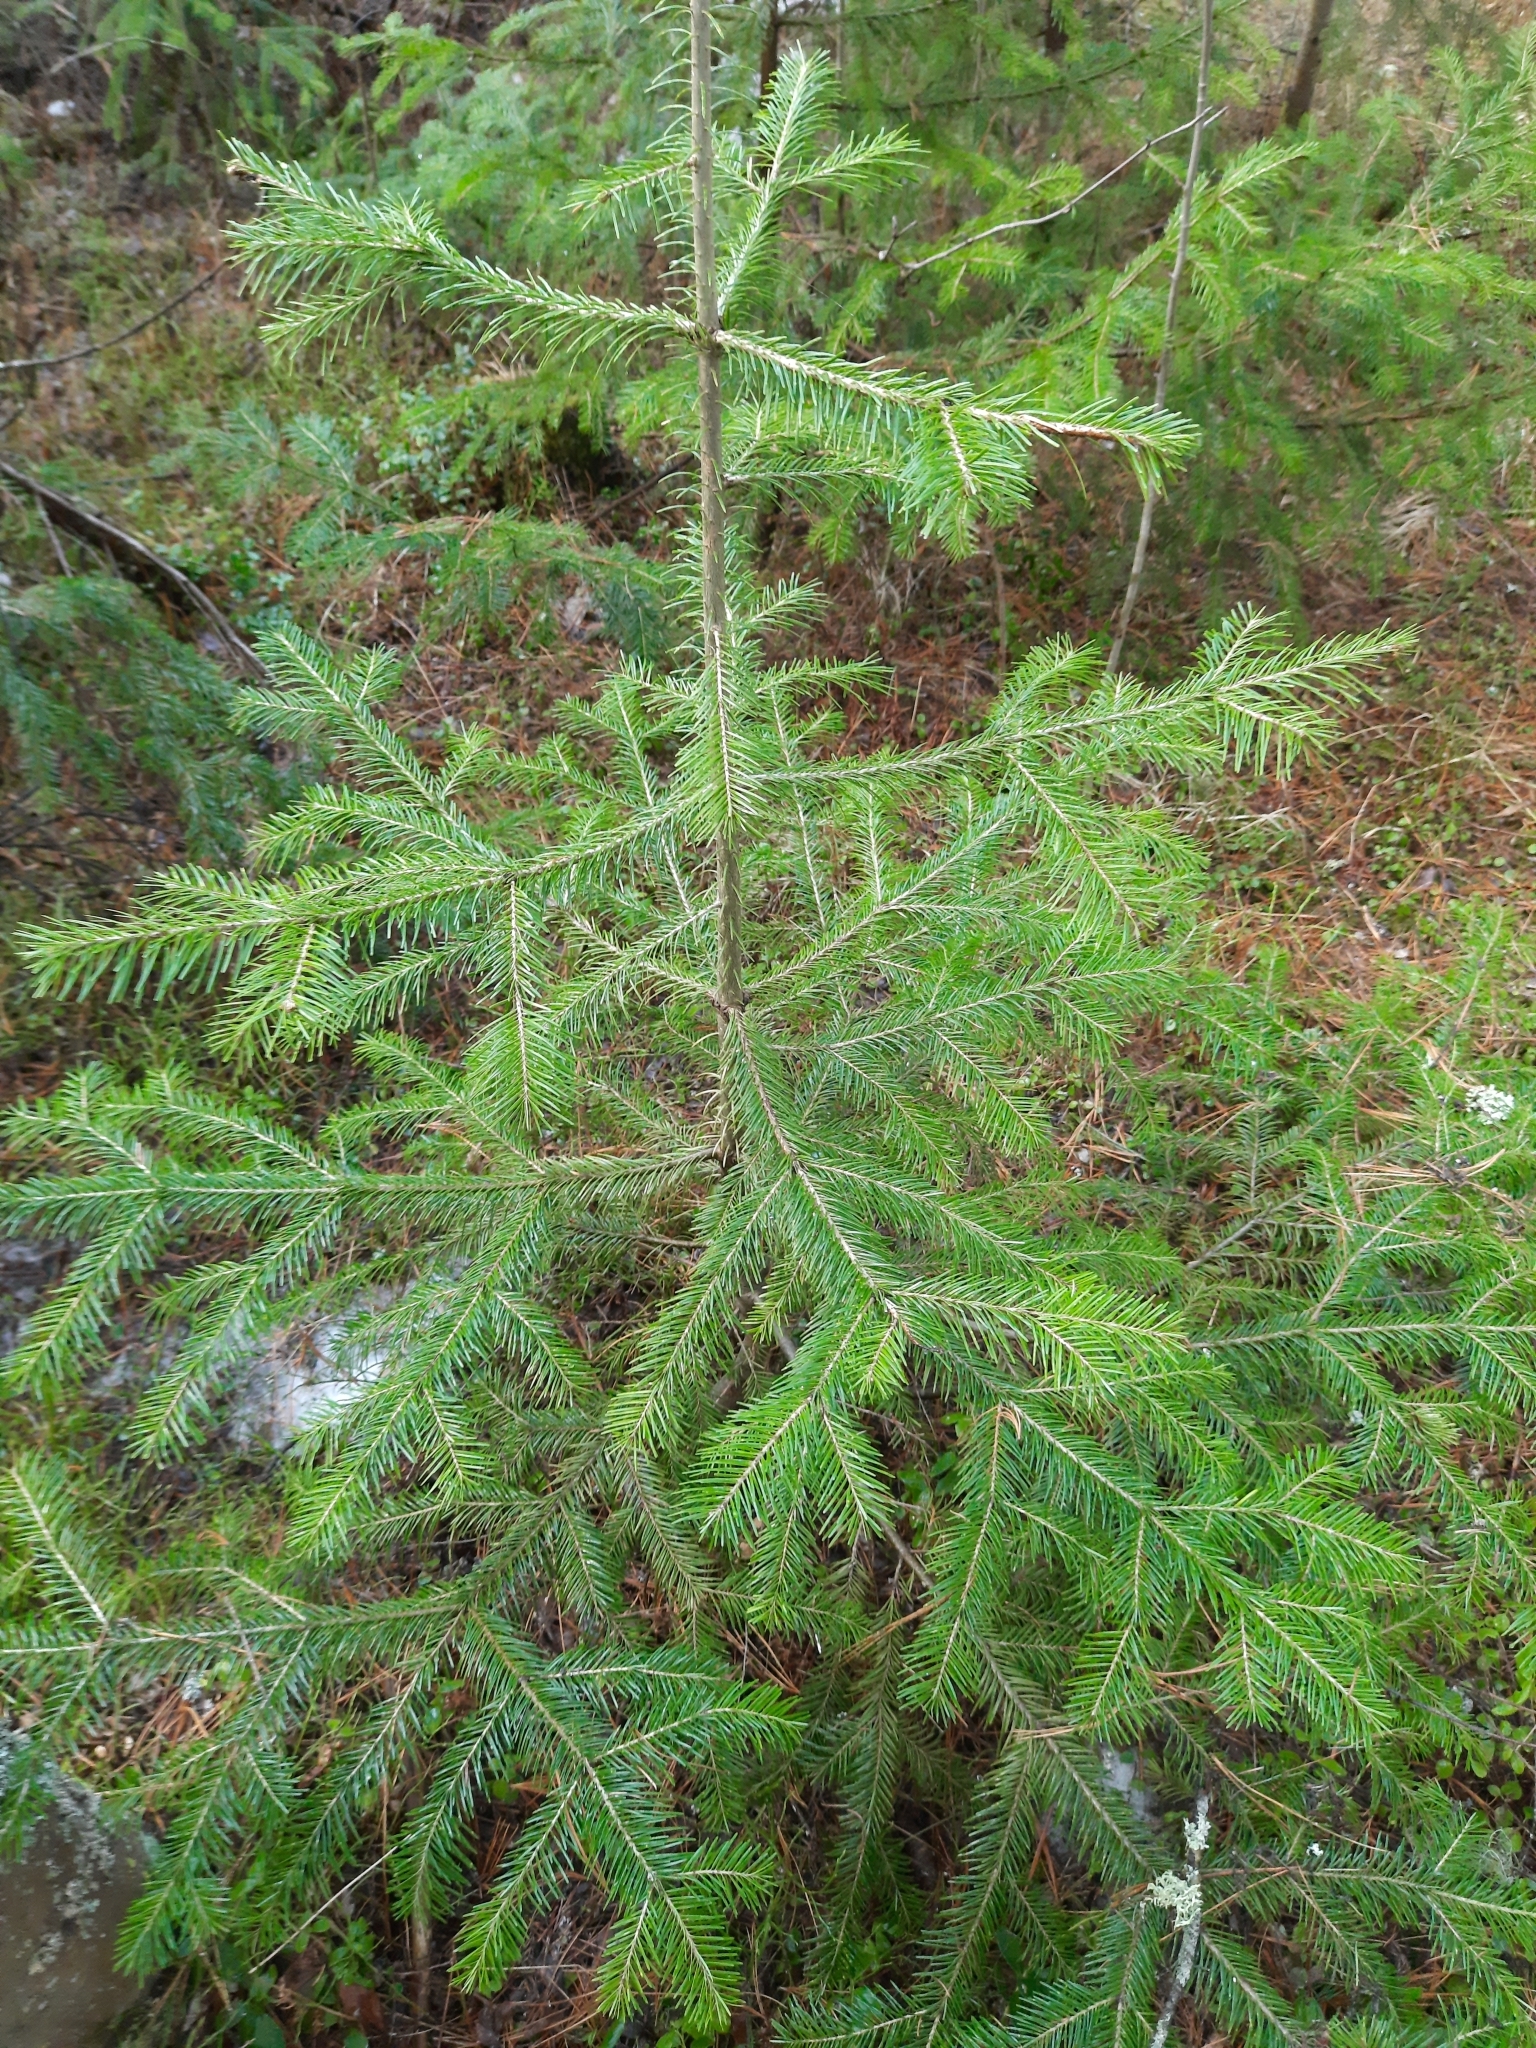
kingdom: Plantae
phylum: Tracheophyta
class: Pinopsida
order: Pinales
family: Pinaceae
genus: Abies
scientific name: Abies sibirica
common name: Siberian fir
